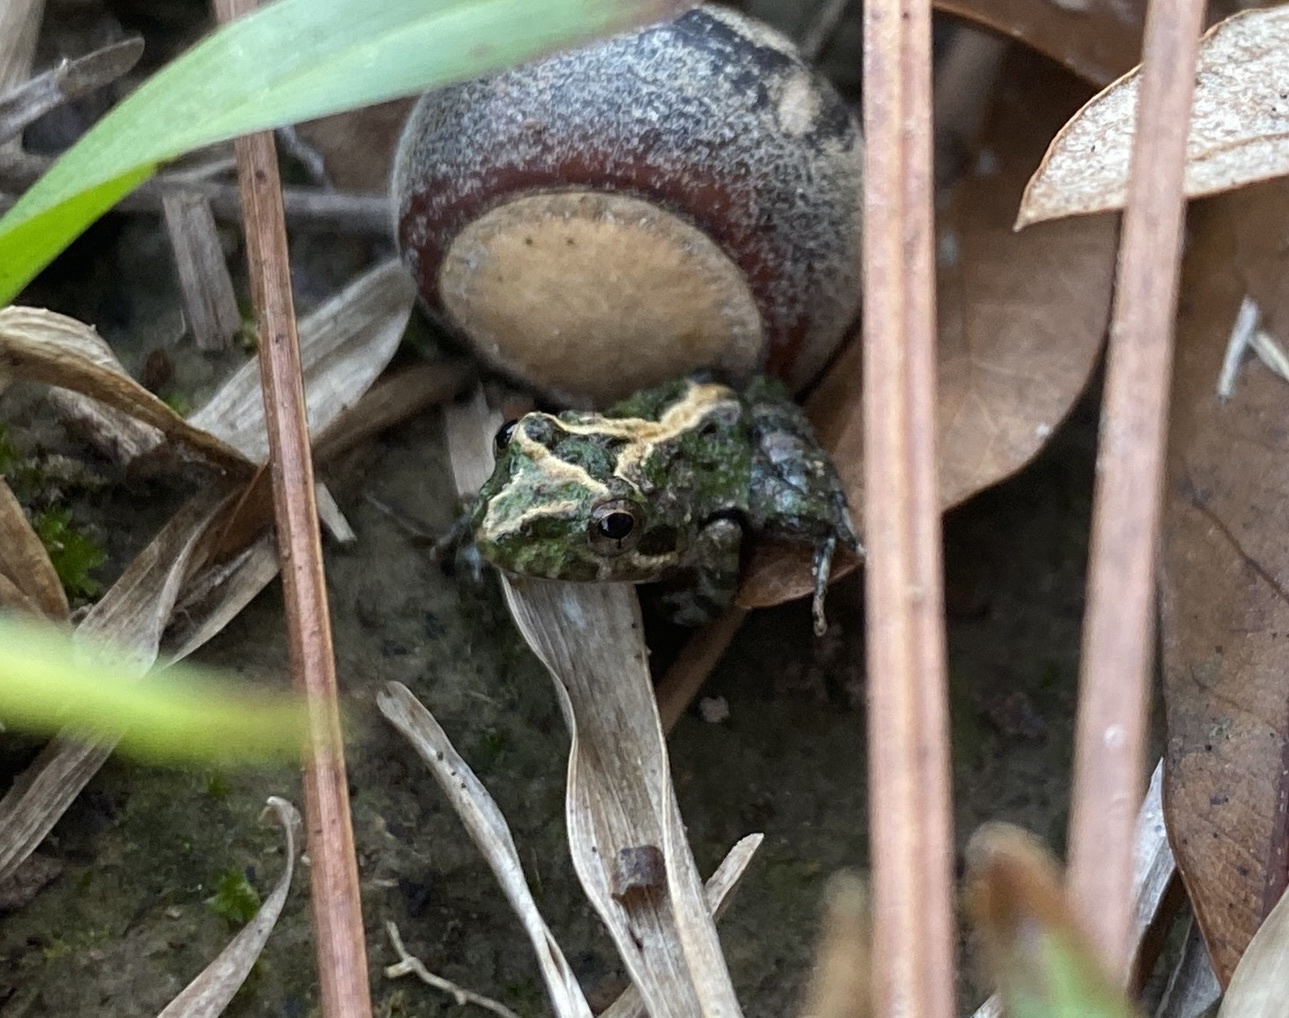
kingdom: Animalia
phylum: Chordata
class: Amphibia
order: Anura
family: Hylidae
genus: Acris
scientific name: Acris
